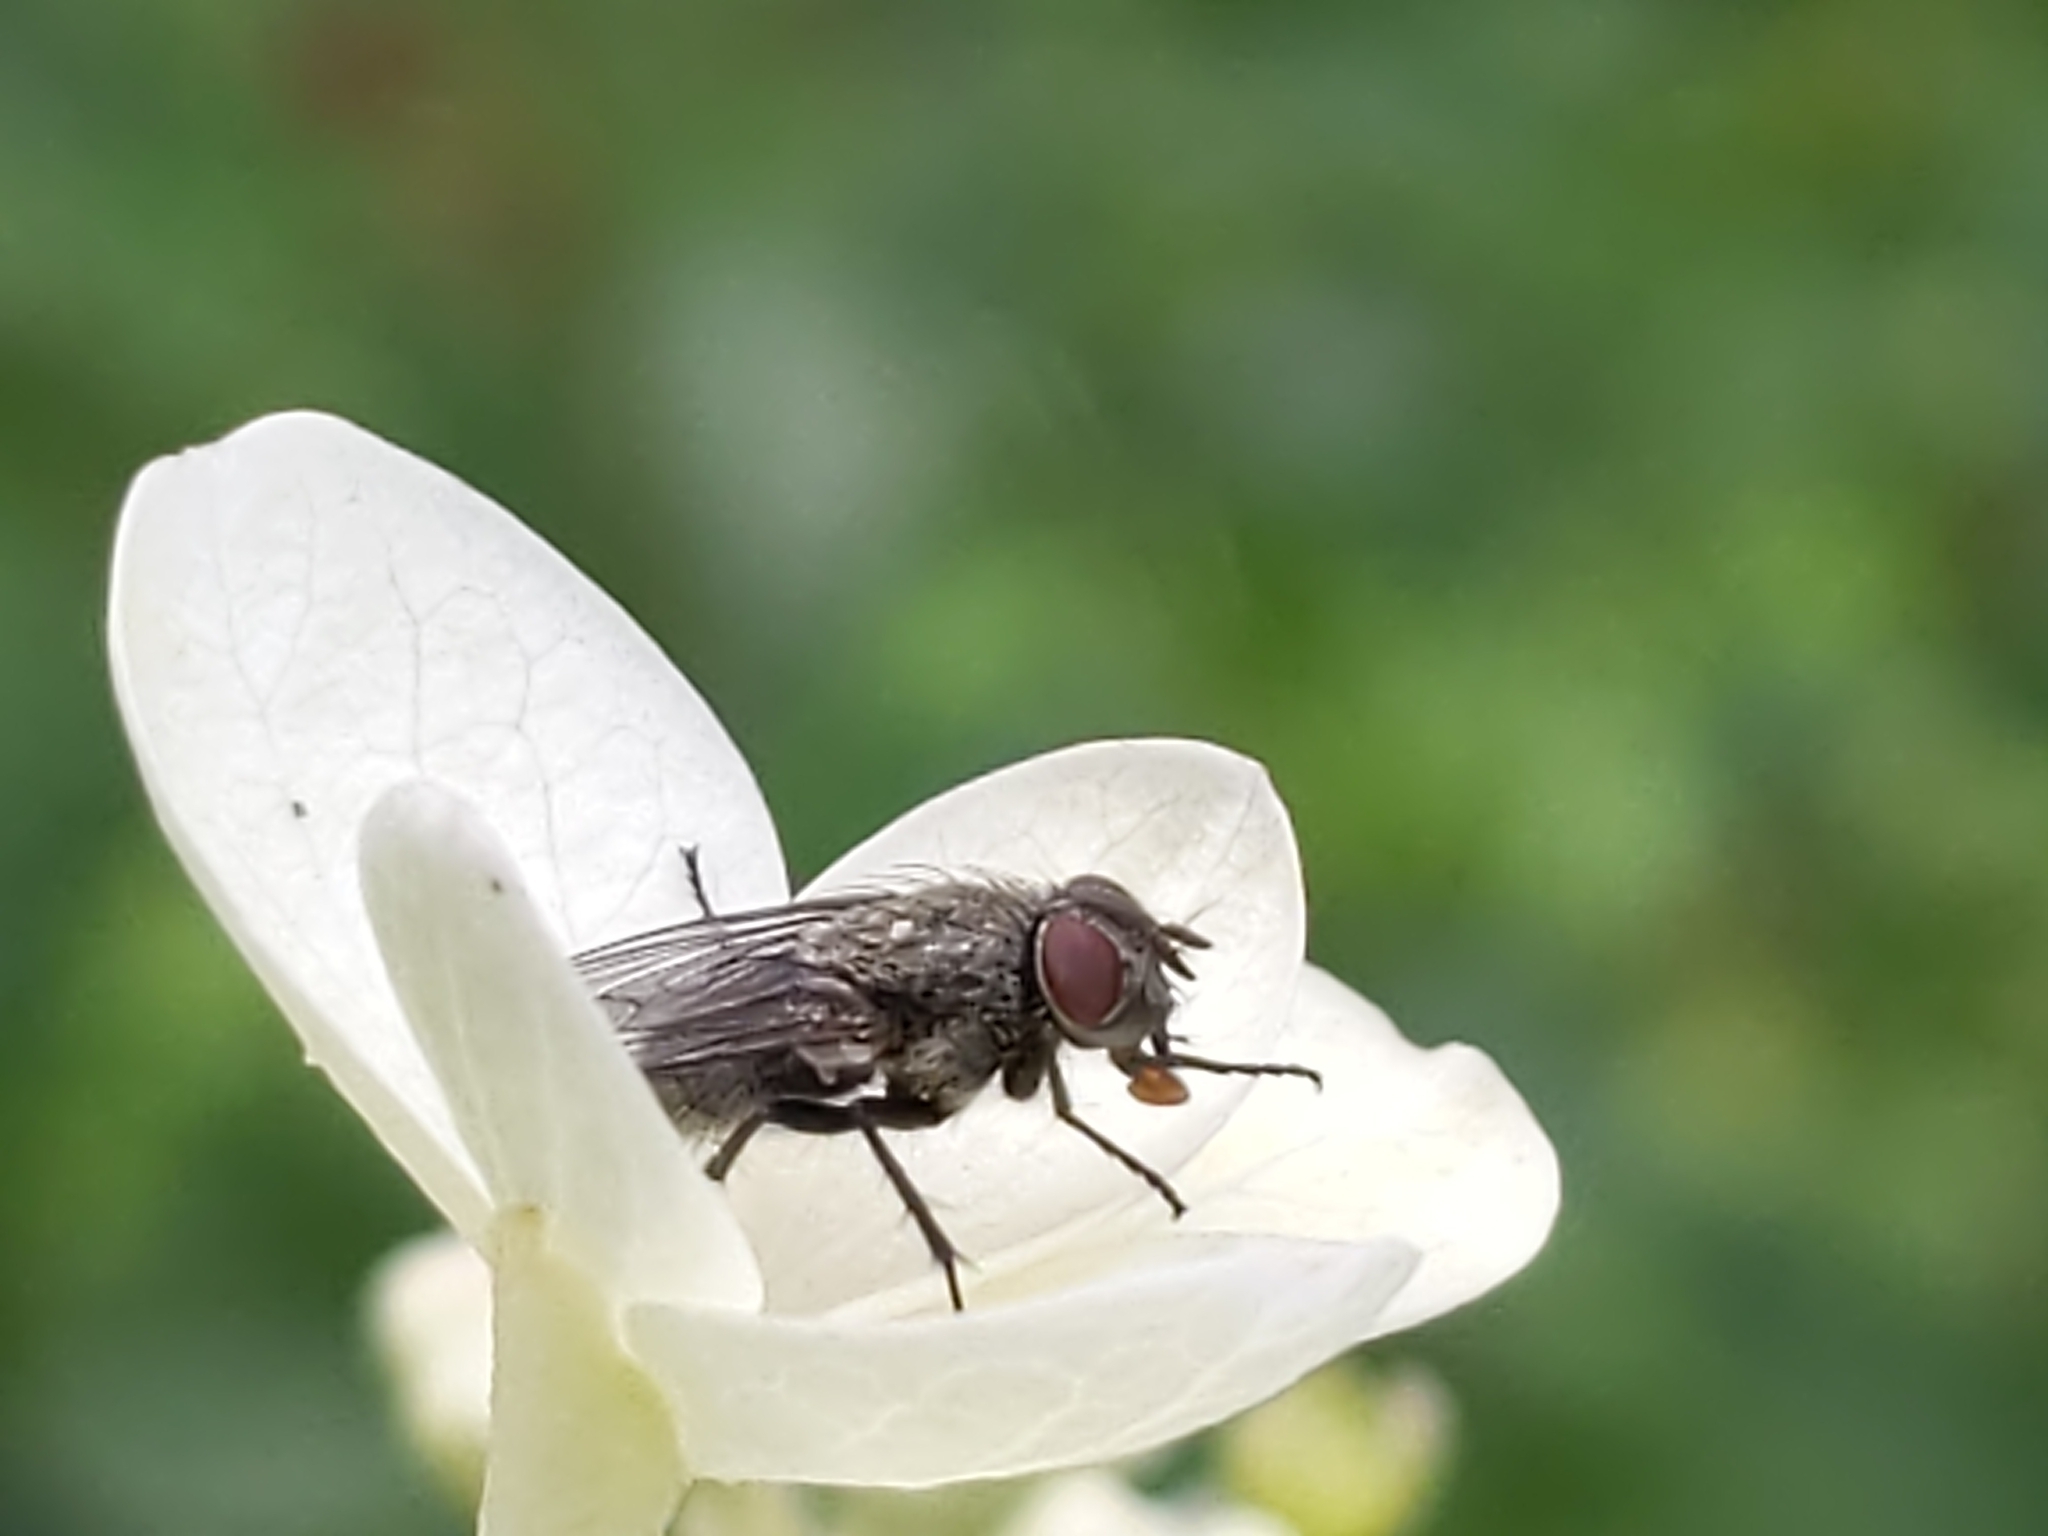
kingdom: Animalia
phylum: Arthropoda
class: Insecta
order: Diptera
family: Polleniidae
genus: Pollenia
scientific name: Pollenia
